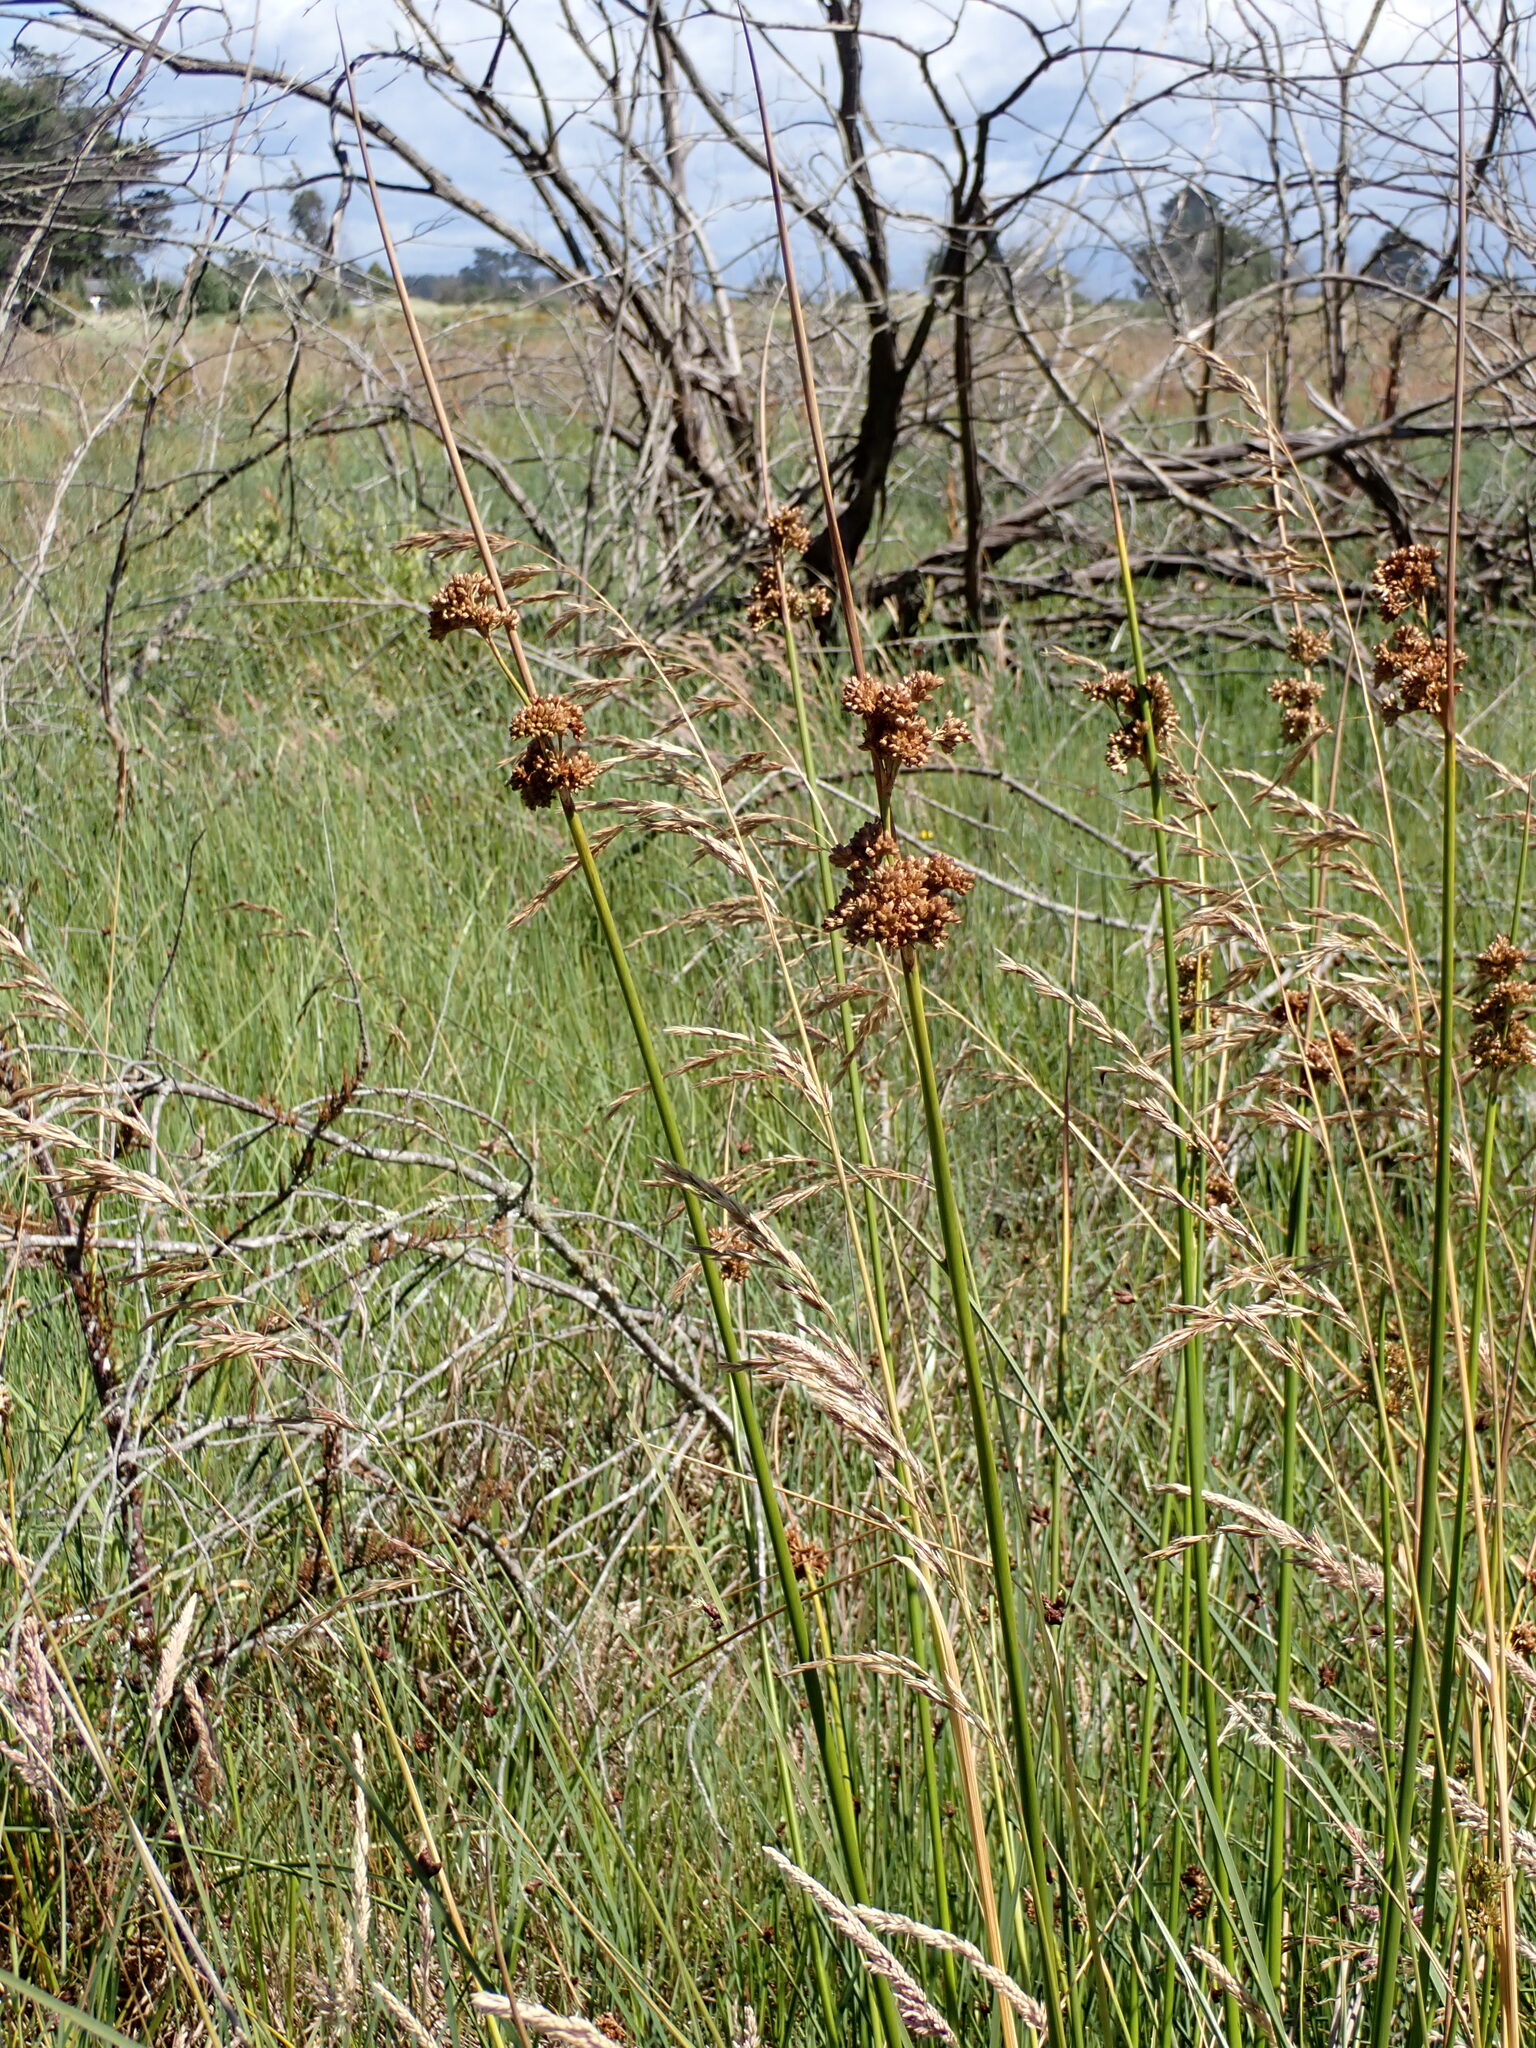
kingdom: Plantae
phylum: Tracheophyta
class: Liliopsida
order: Poales
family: Juncaceae
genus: Juncus
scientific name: Juncus pallidus
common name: Great soft-rush
